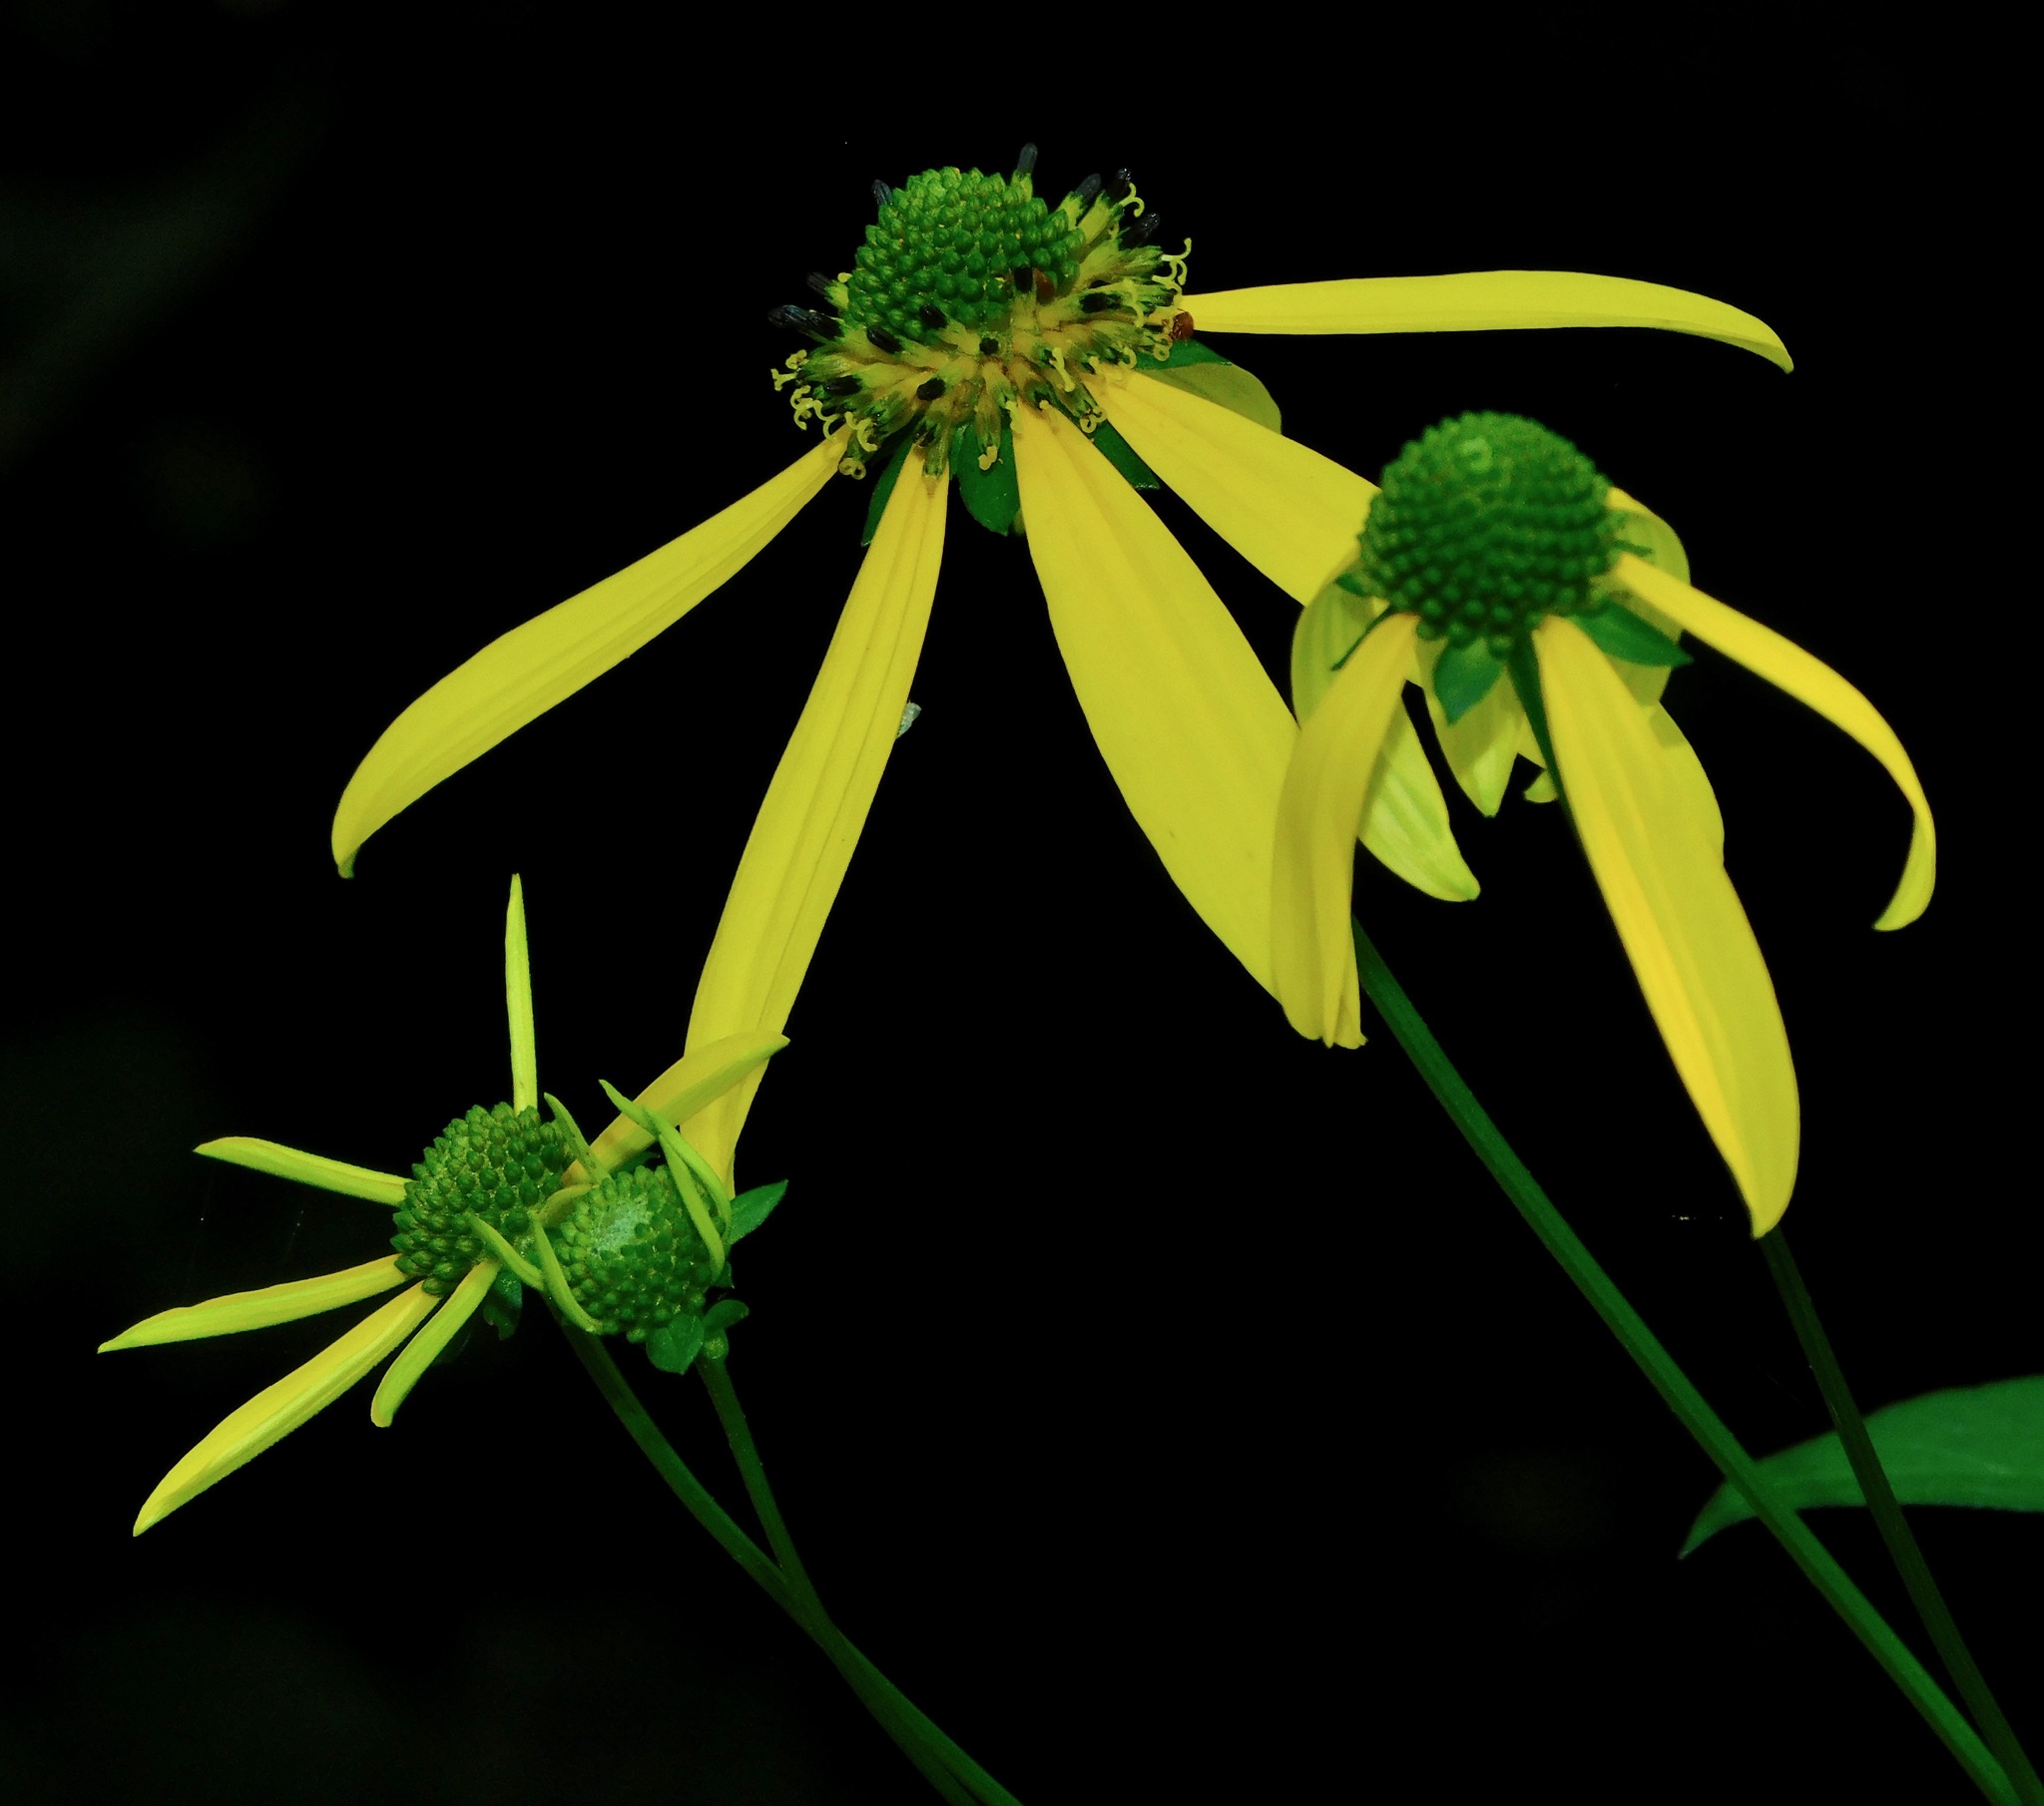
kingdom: Plantae
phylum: Tracheophyta
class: Magnoliopsida
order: Asterales
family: Asteraceae
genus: Rudbeckia
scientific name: Rudbeckia laciniata
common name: Coneflower
